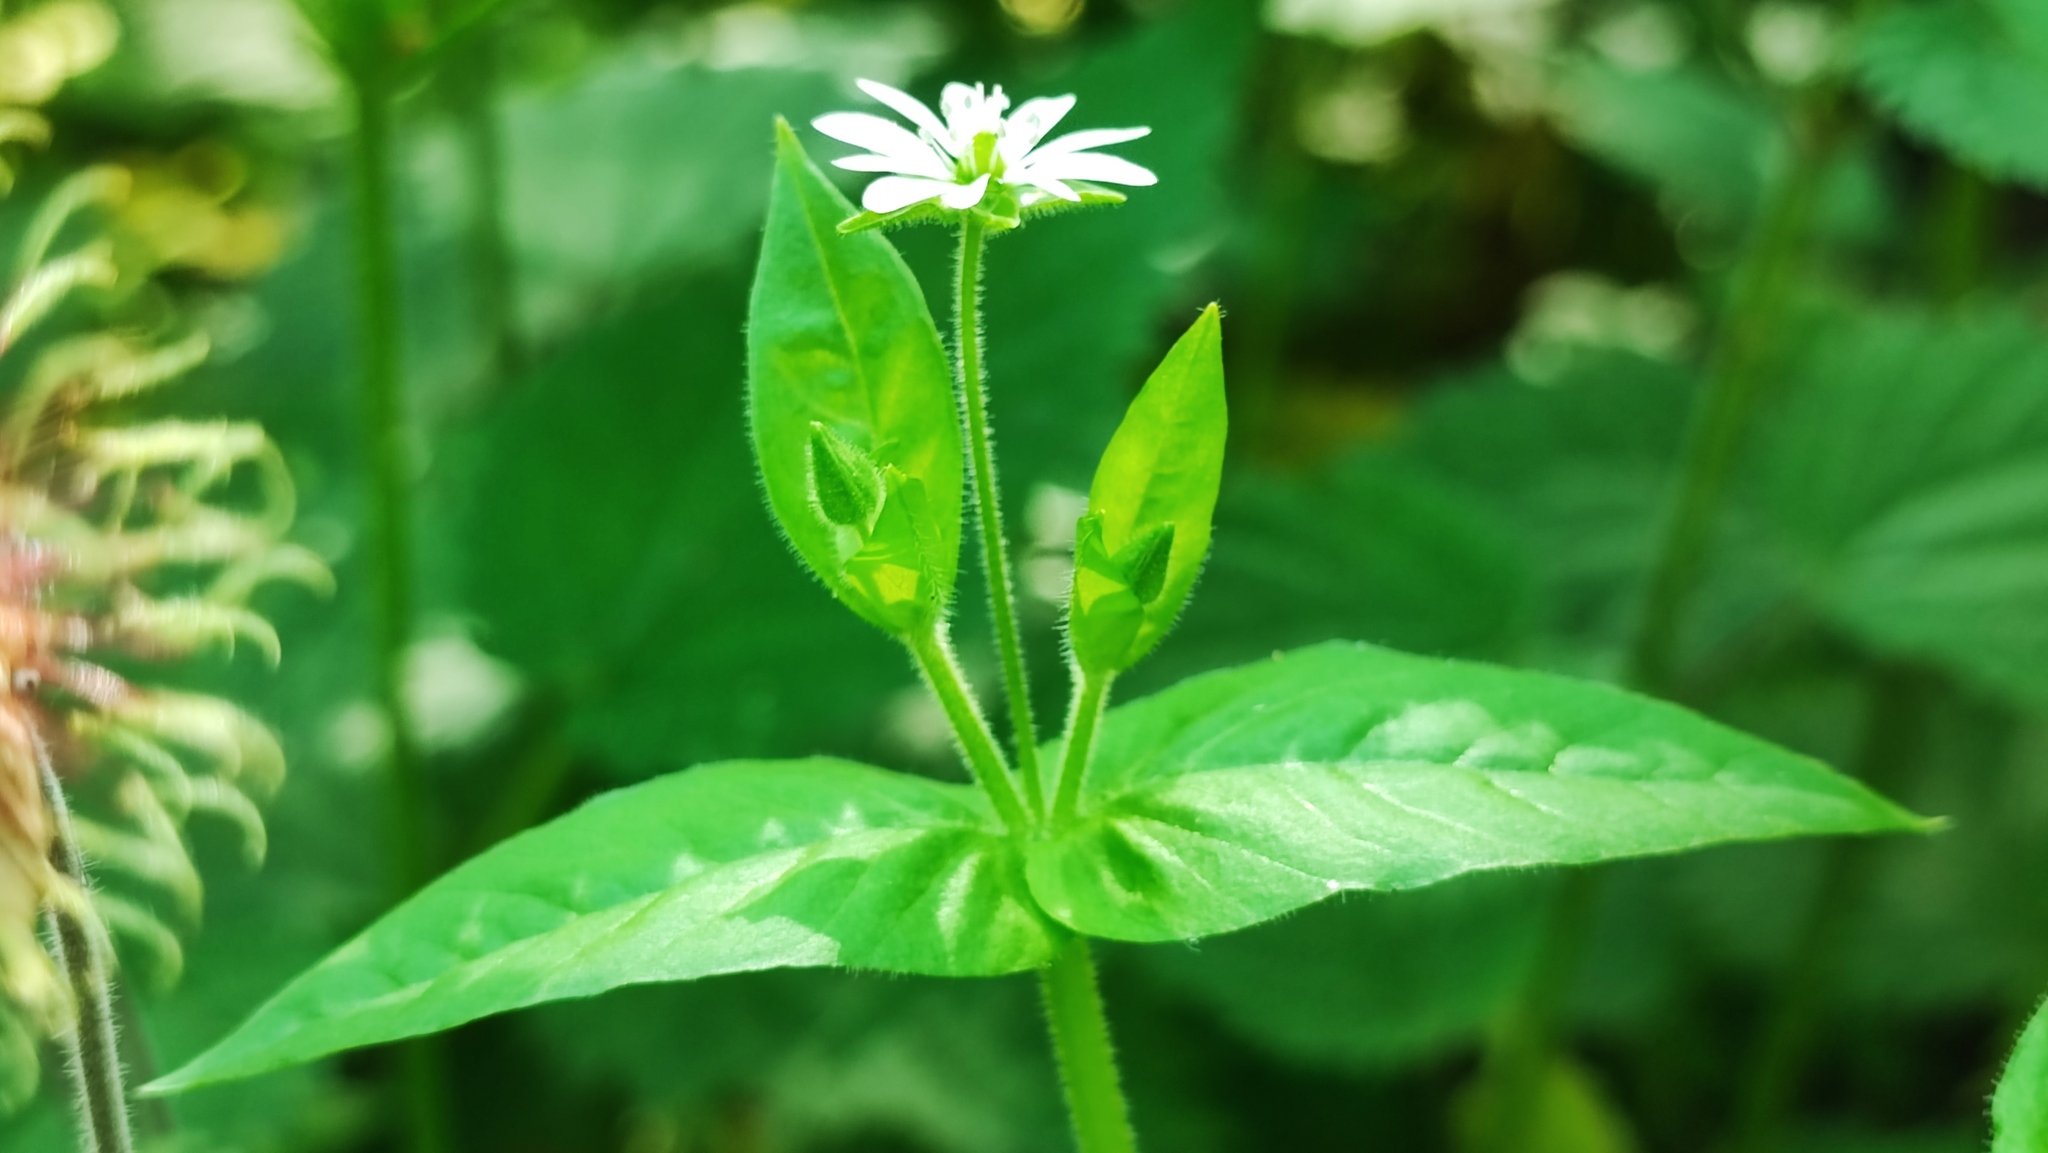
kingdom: Plantae
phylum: Tracheophyta
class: Magnoliopsida
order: Caryophyllales
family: Caryophyllaceae
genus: Stellaria
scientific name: Stellaria aquatica
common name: Water chickweed
